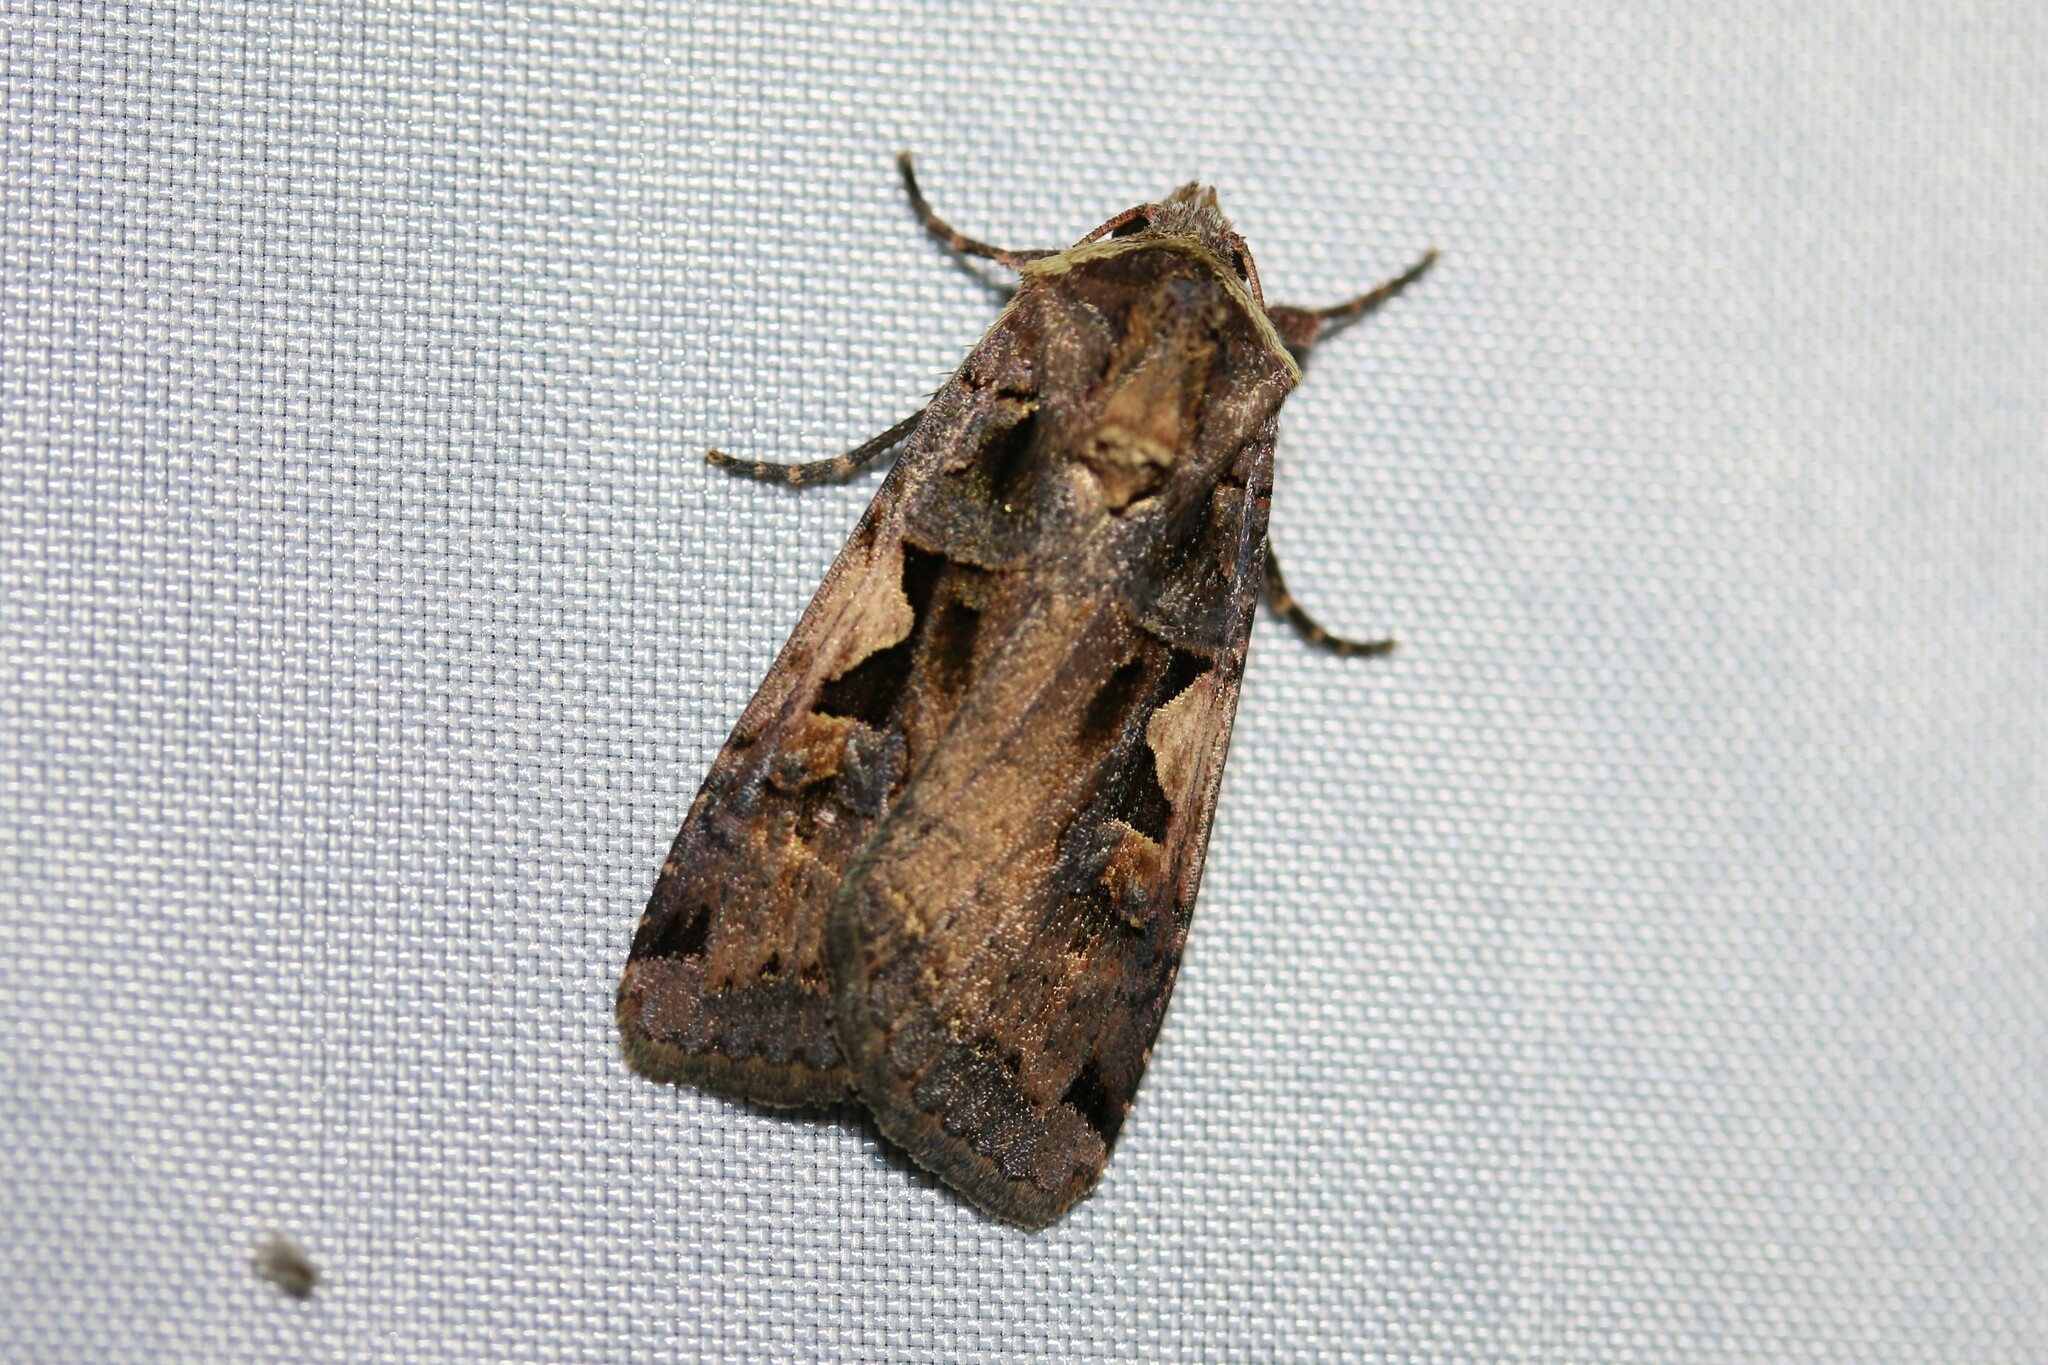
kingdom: Animalia
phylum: Arthropoda
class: Insecta
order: Lepidoptera
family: Noctuidae
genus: Xestia
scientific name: Xestia c-nigrum
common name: Setaceous hebrew character
